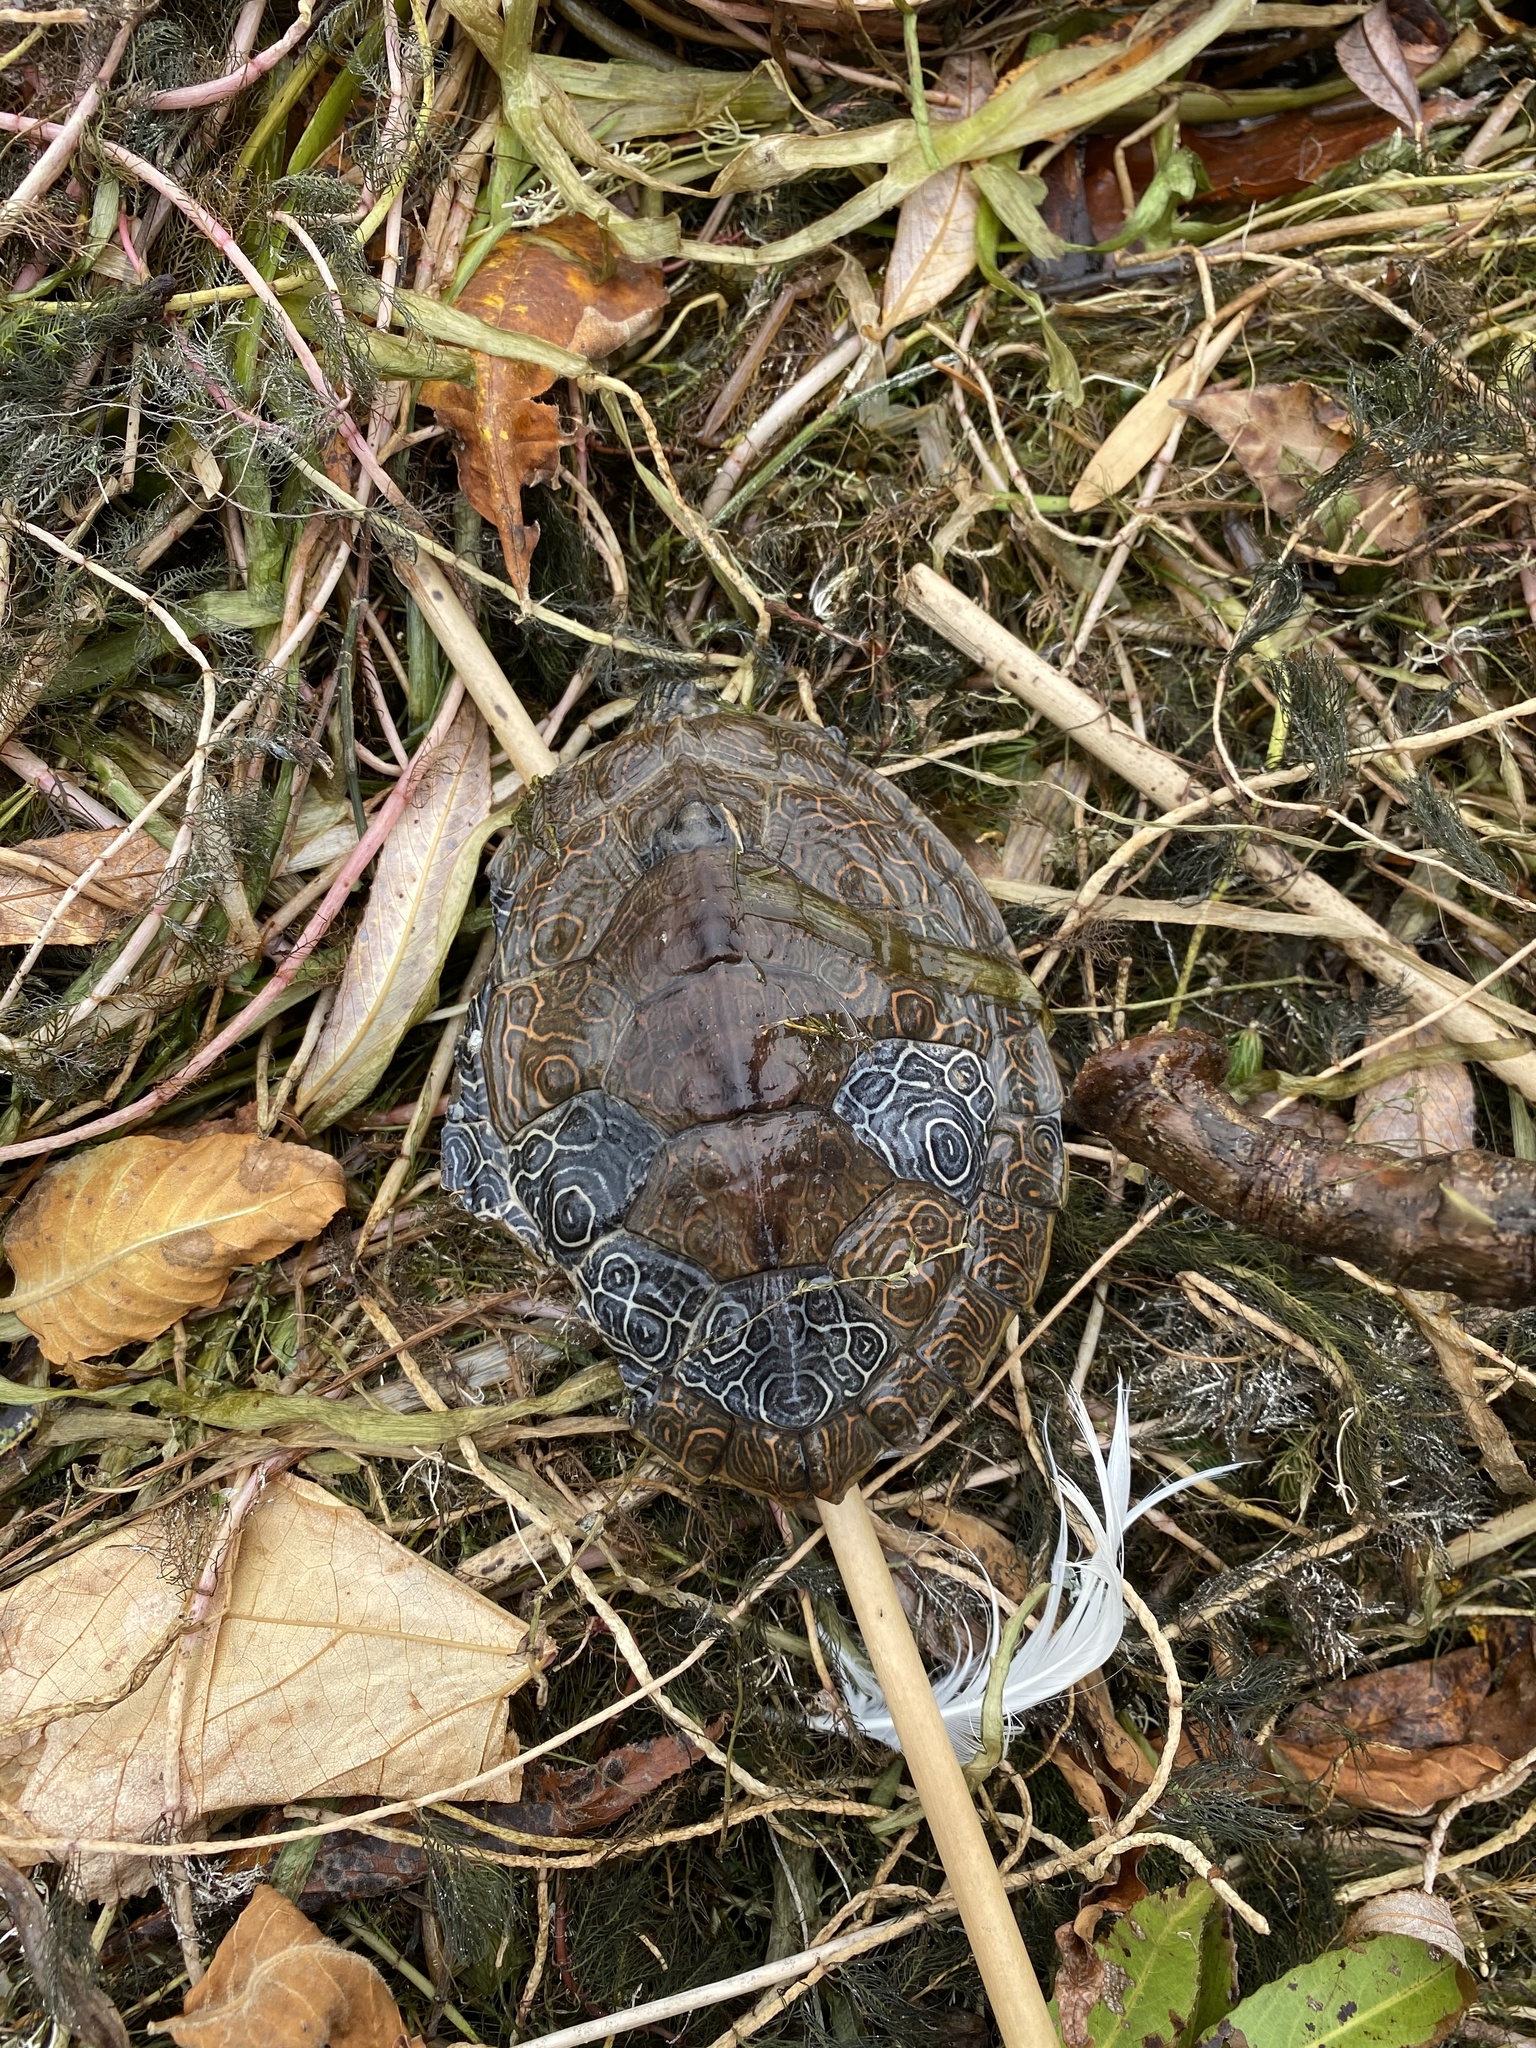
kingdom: Animalia
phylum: Chordata
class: Testudines
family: Emydidae
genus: Graptemys
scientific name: Graptemys geographica
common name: Common map turtle
